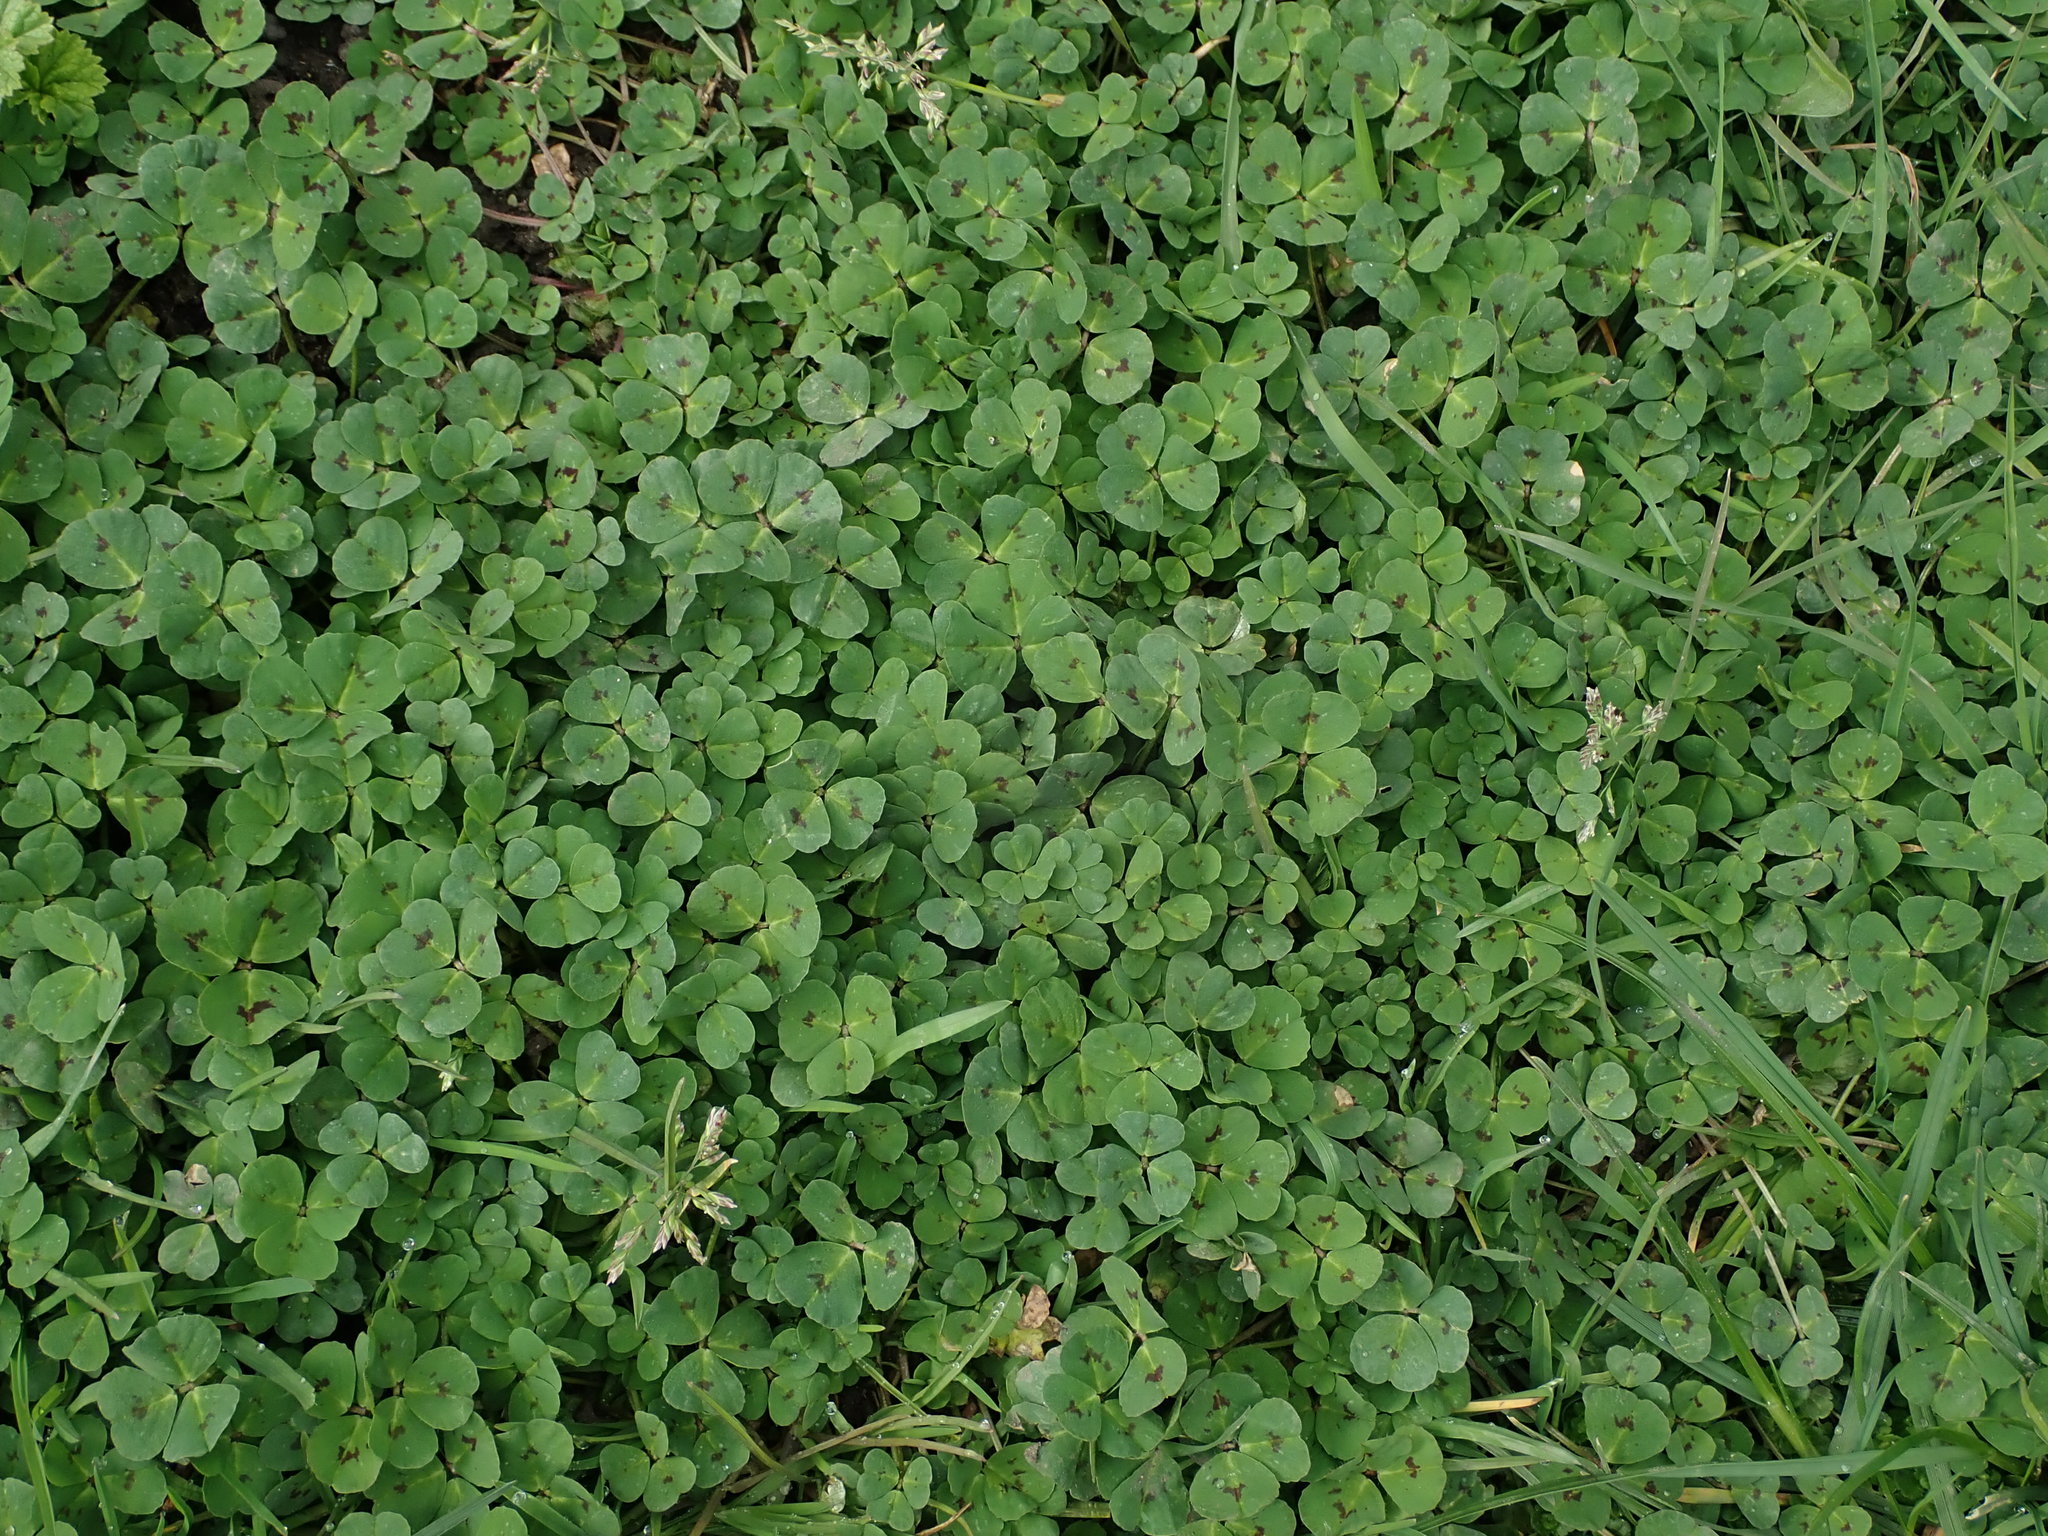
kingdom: Plantae
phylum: Tracheophyta
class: Magnoliopsida
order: Fabales
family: Fabaceae
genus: Medicago
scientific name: Medicago arabica
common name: Spotted medick
